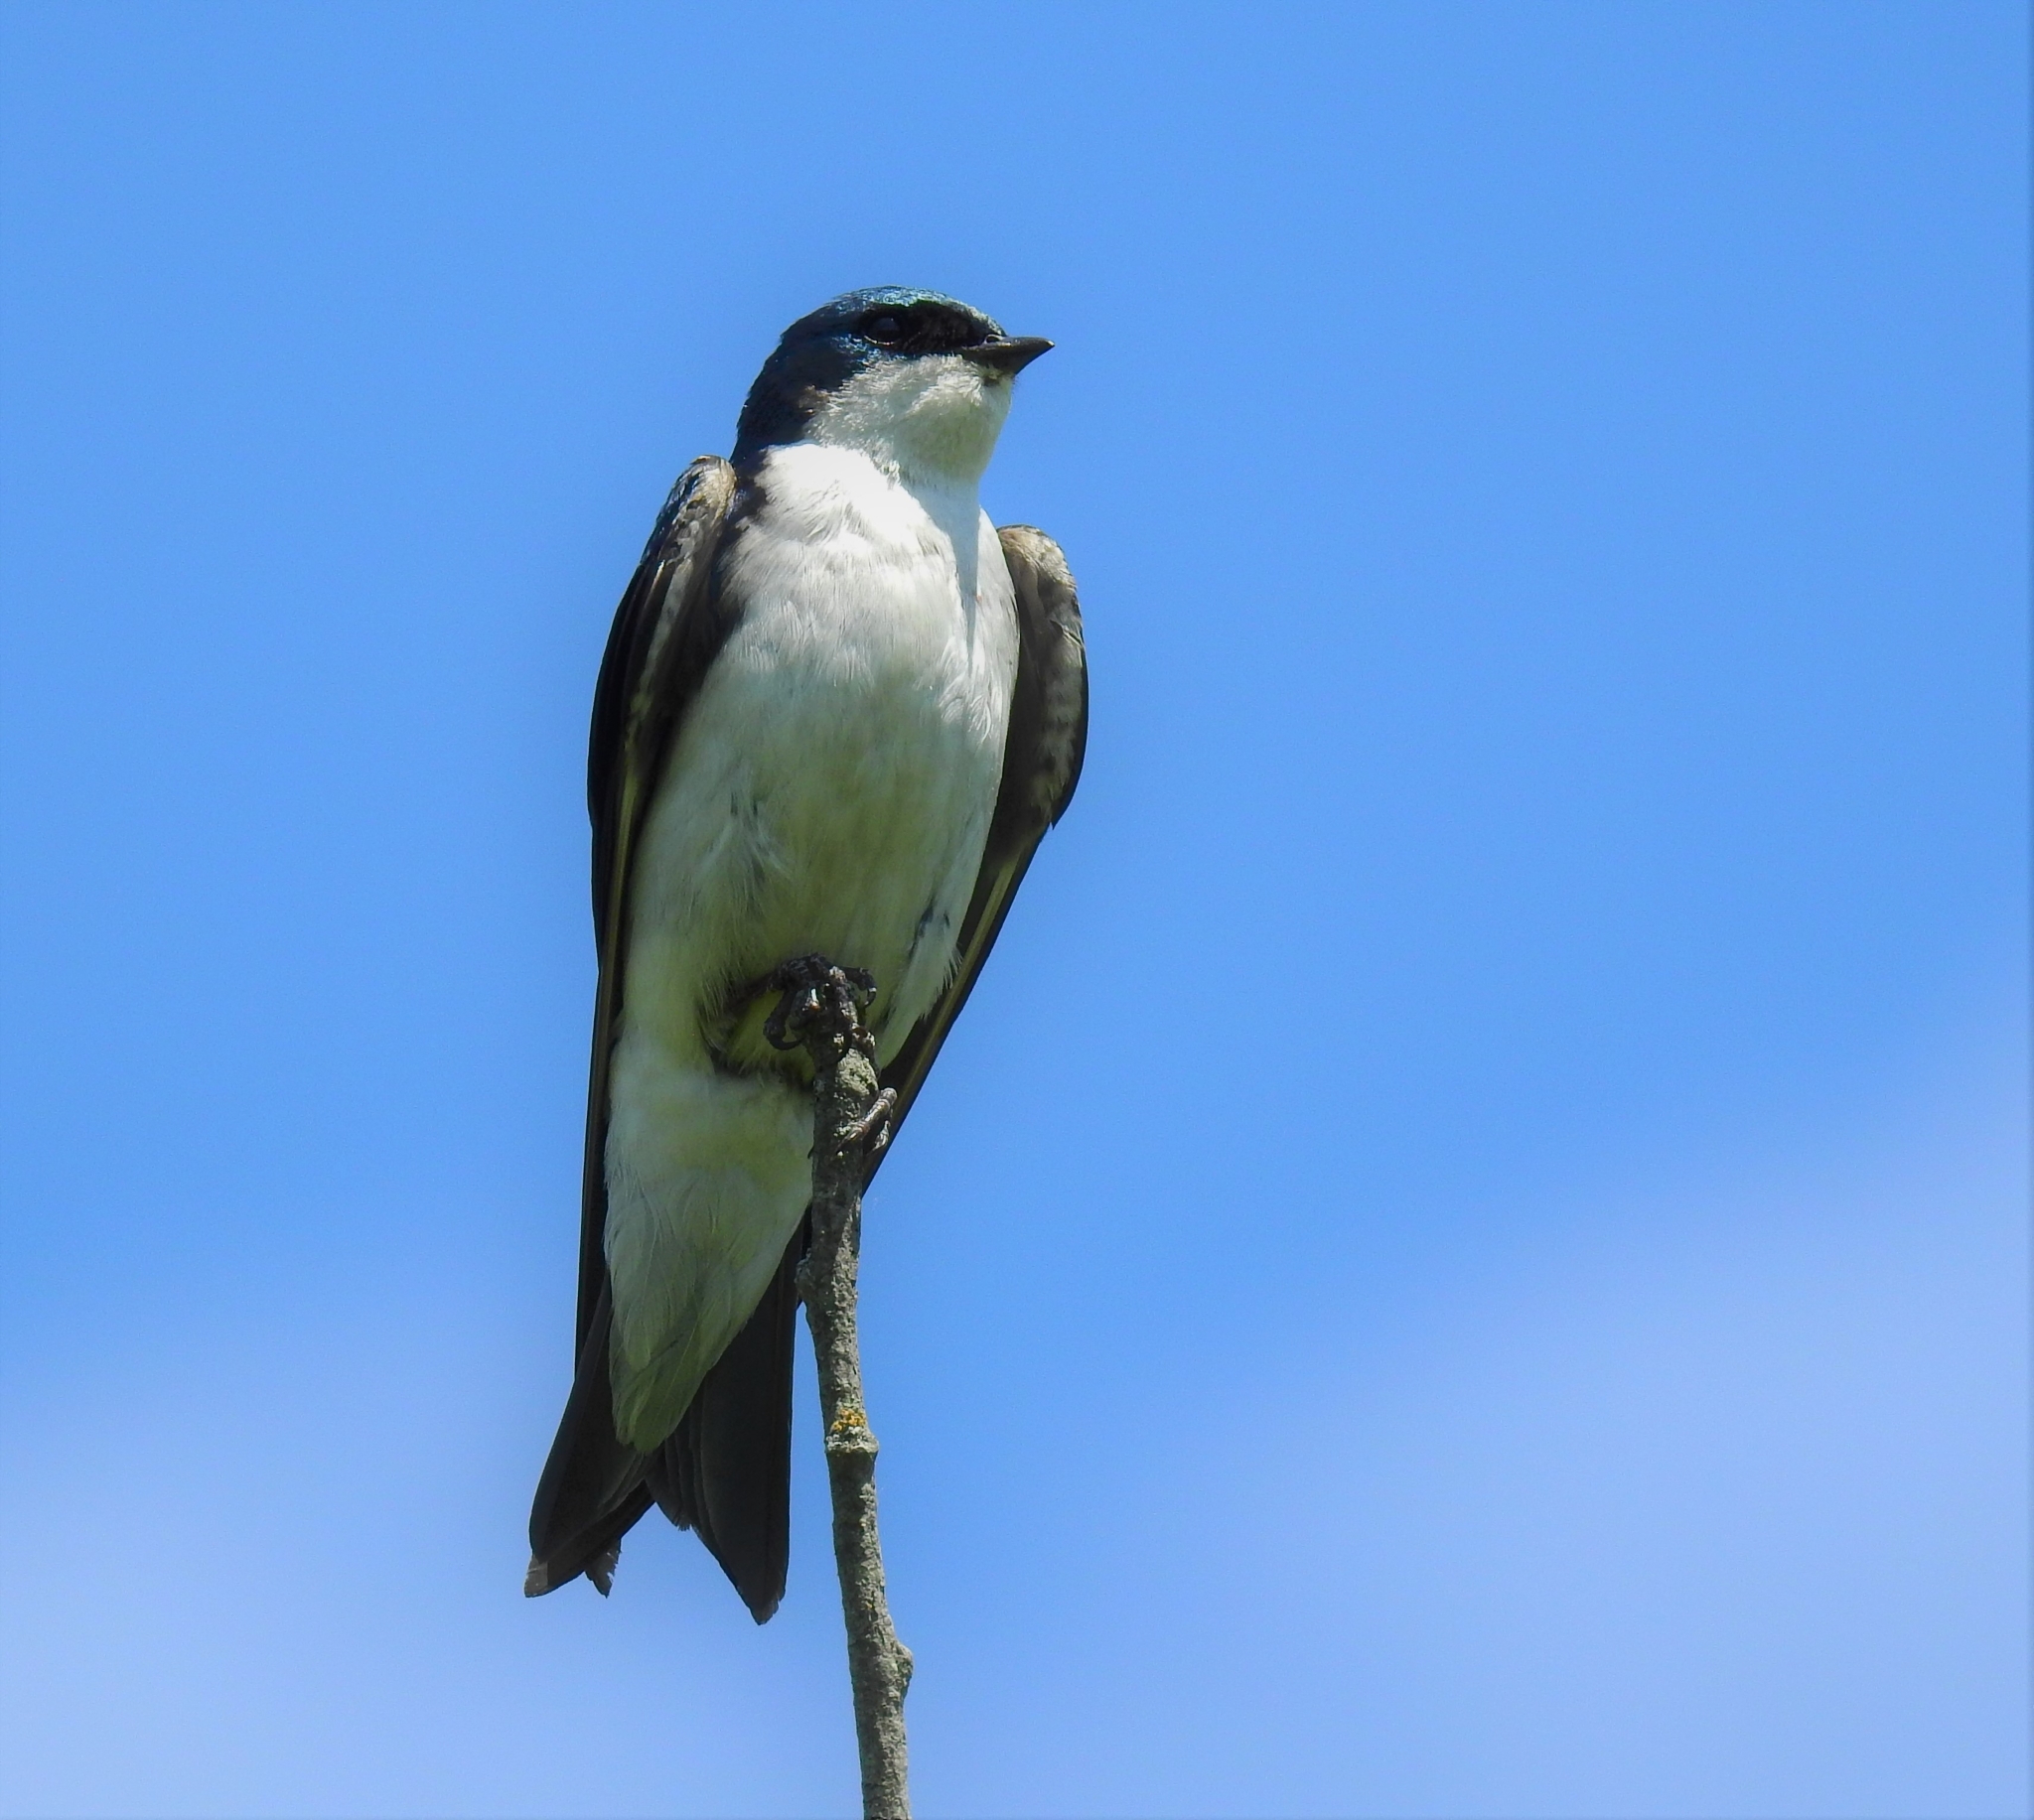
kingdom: Animalia
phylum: Chordata
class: Aves
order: Passeriformes
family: Hirundinidae
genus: Tachycineta
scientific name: Tachycineta bicolor
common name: Tree swallow
